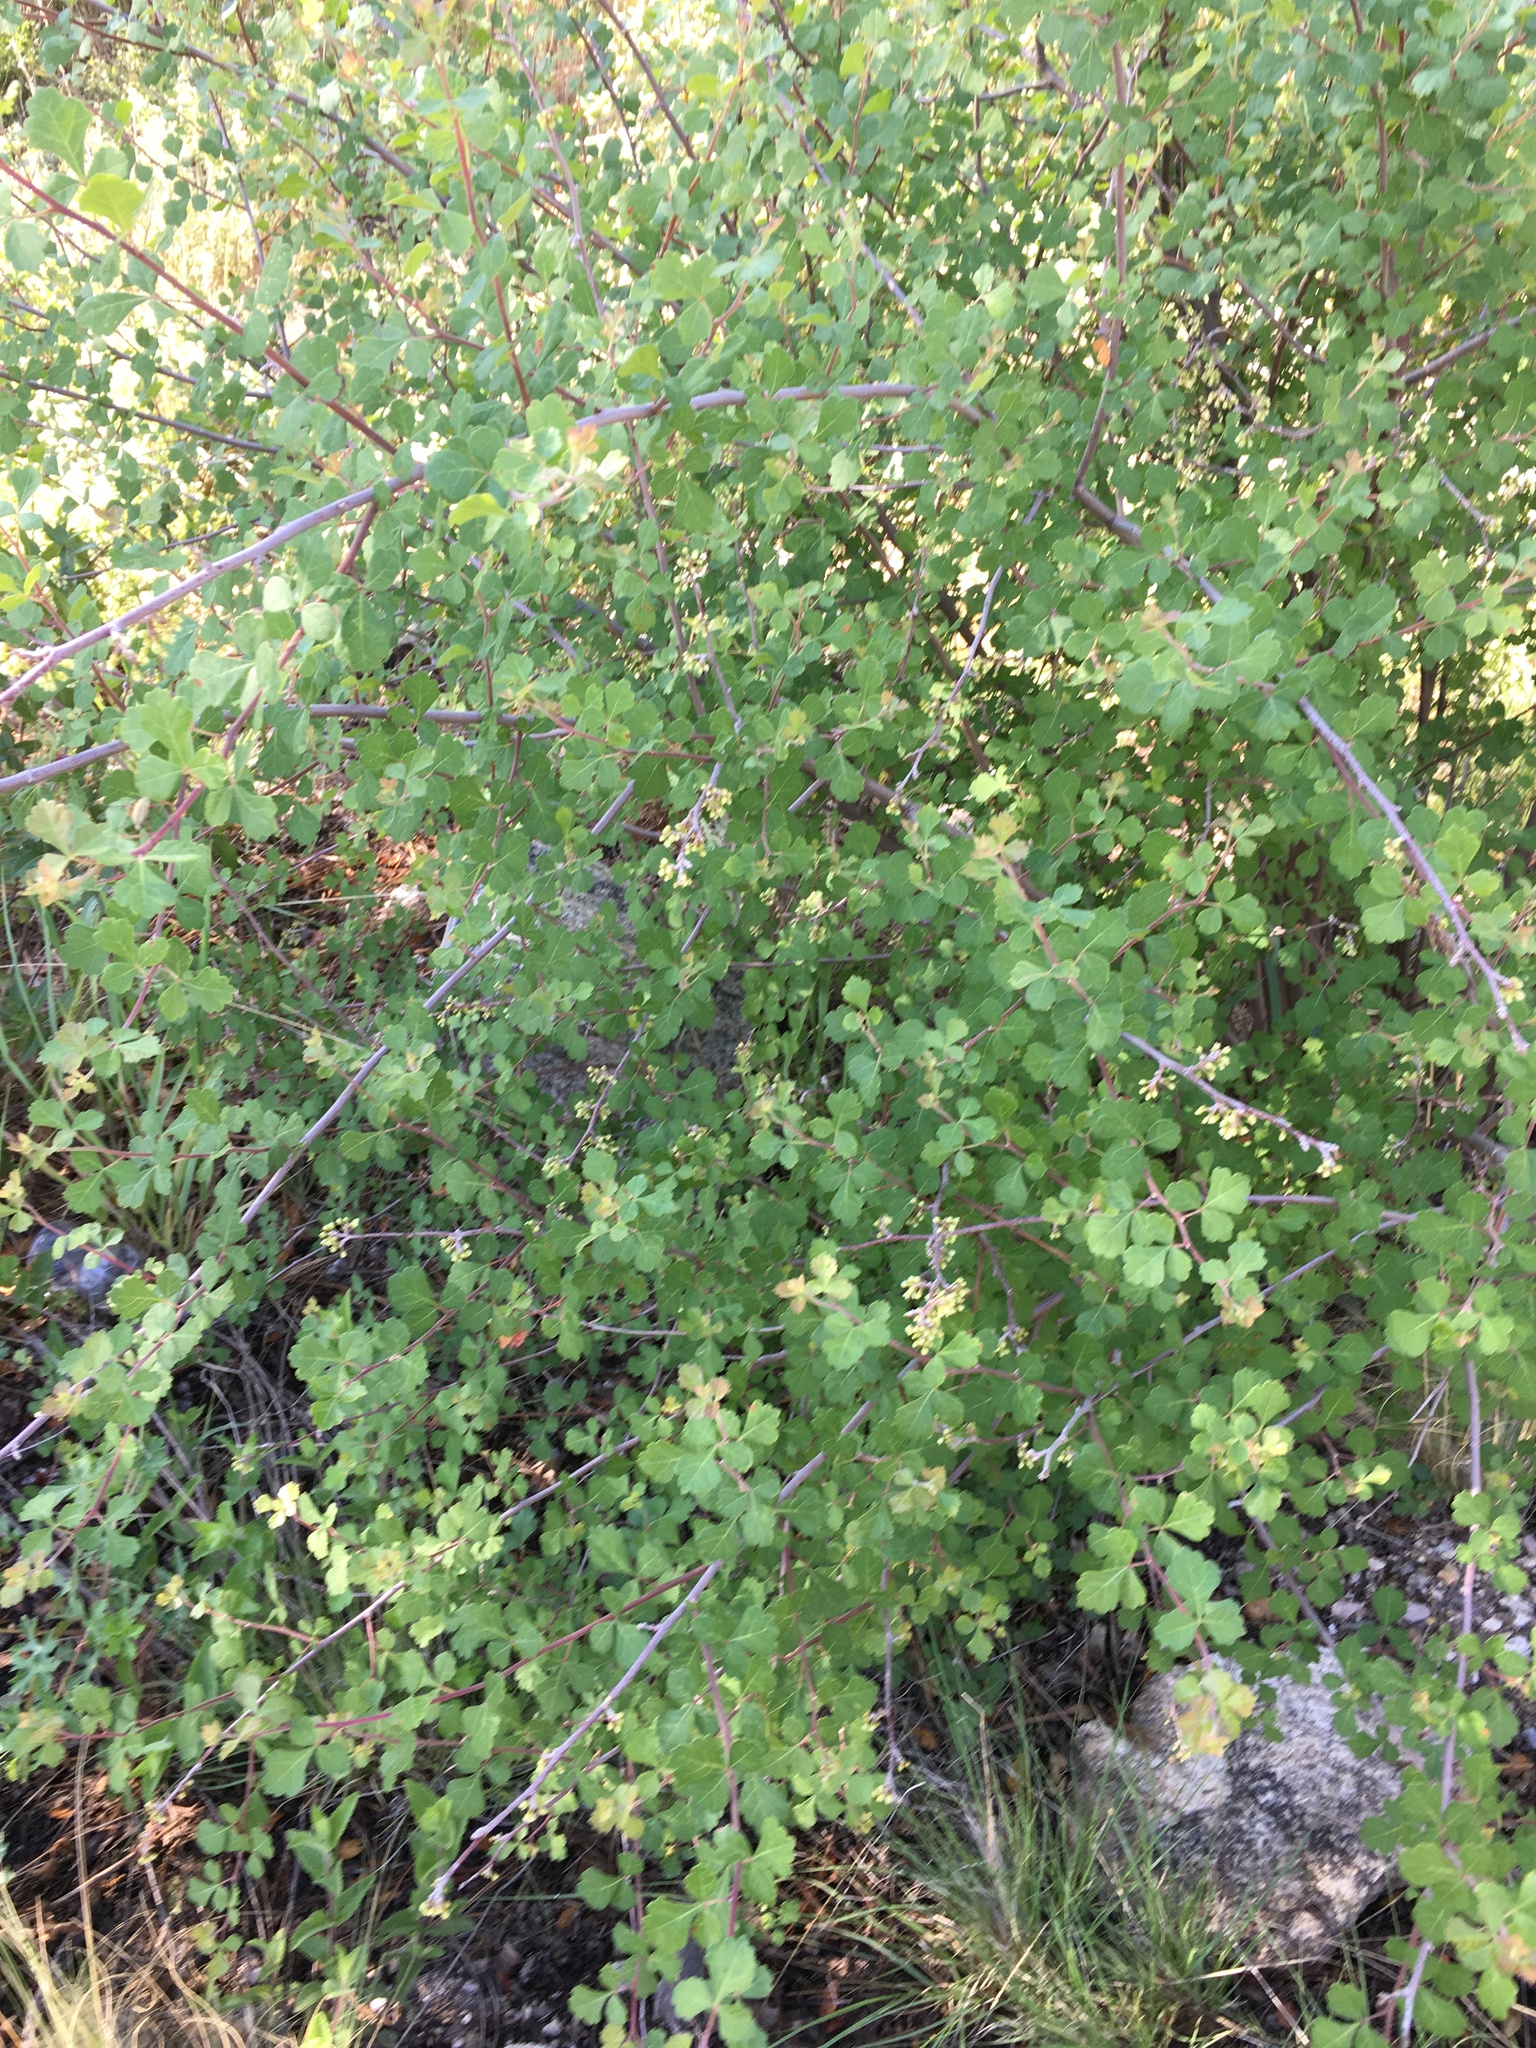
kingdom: Plantae
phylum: Tracheophyta
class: Magnoliopsida
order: Sapindales
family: Anacardiaceae
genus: Rhus
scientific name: Rhus aromatica
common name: Aromatic sumac
